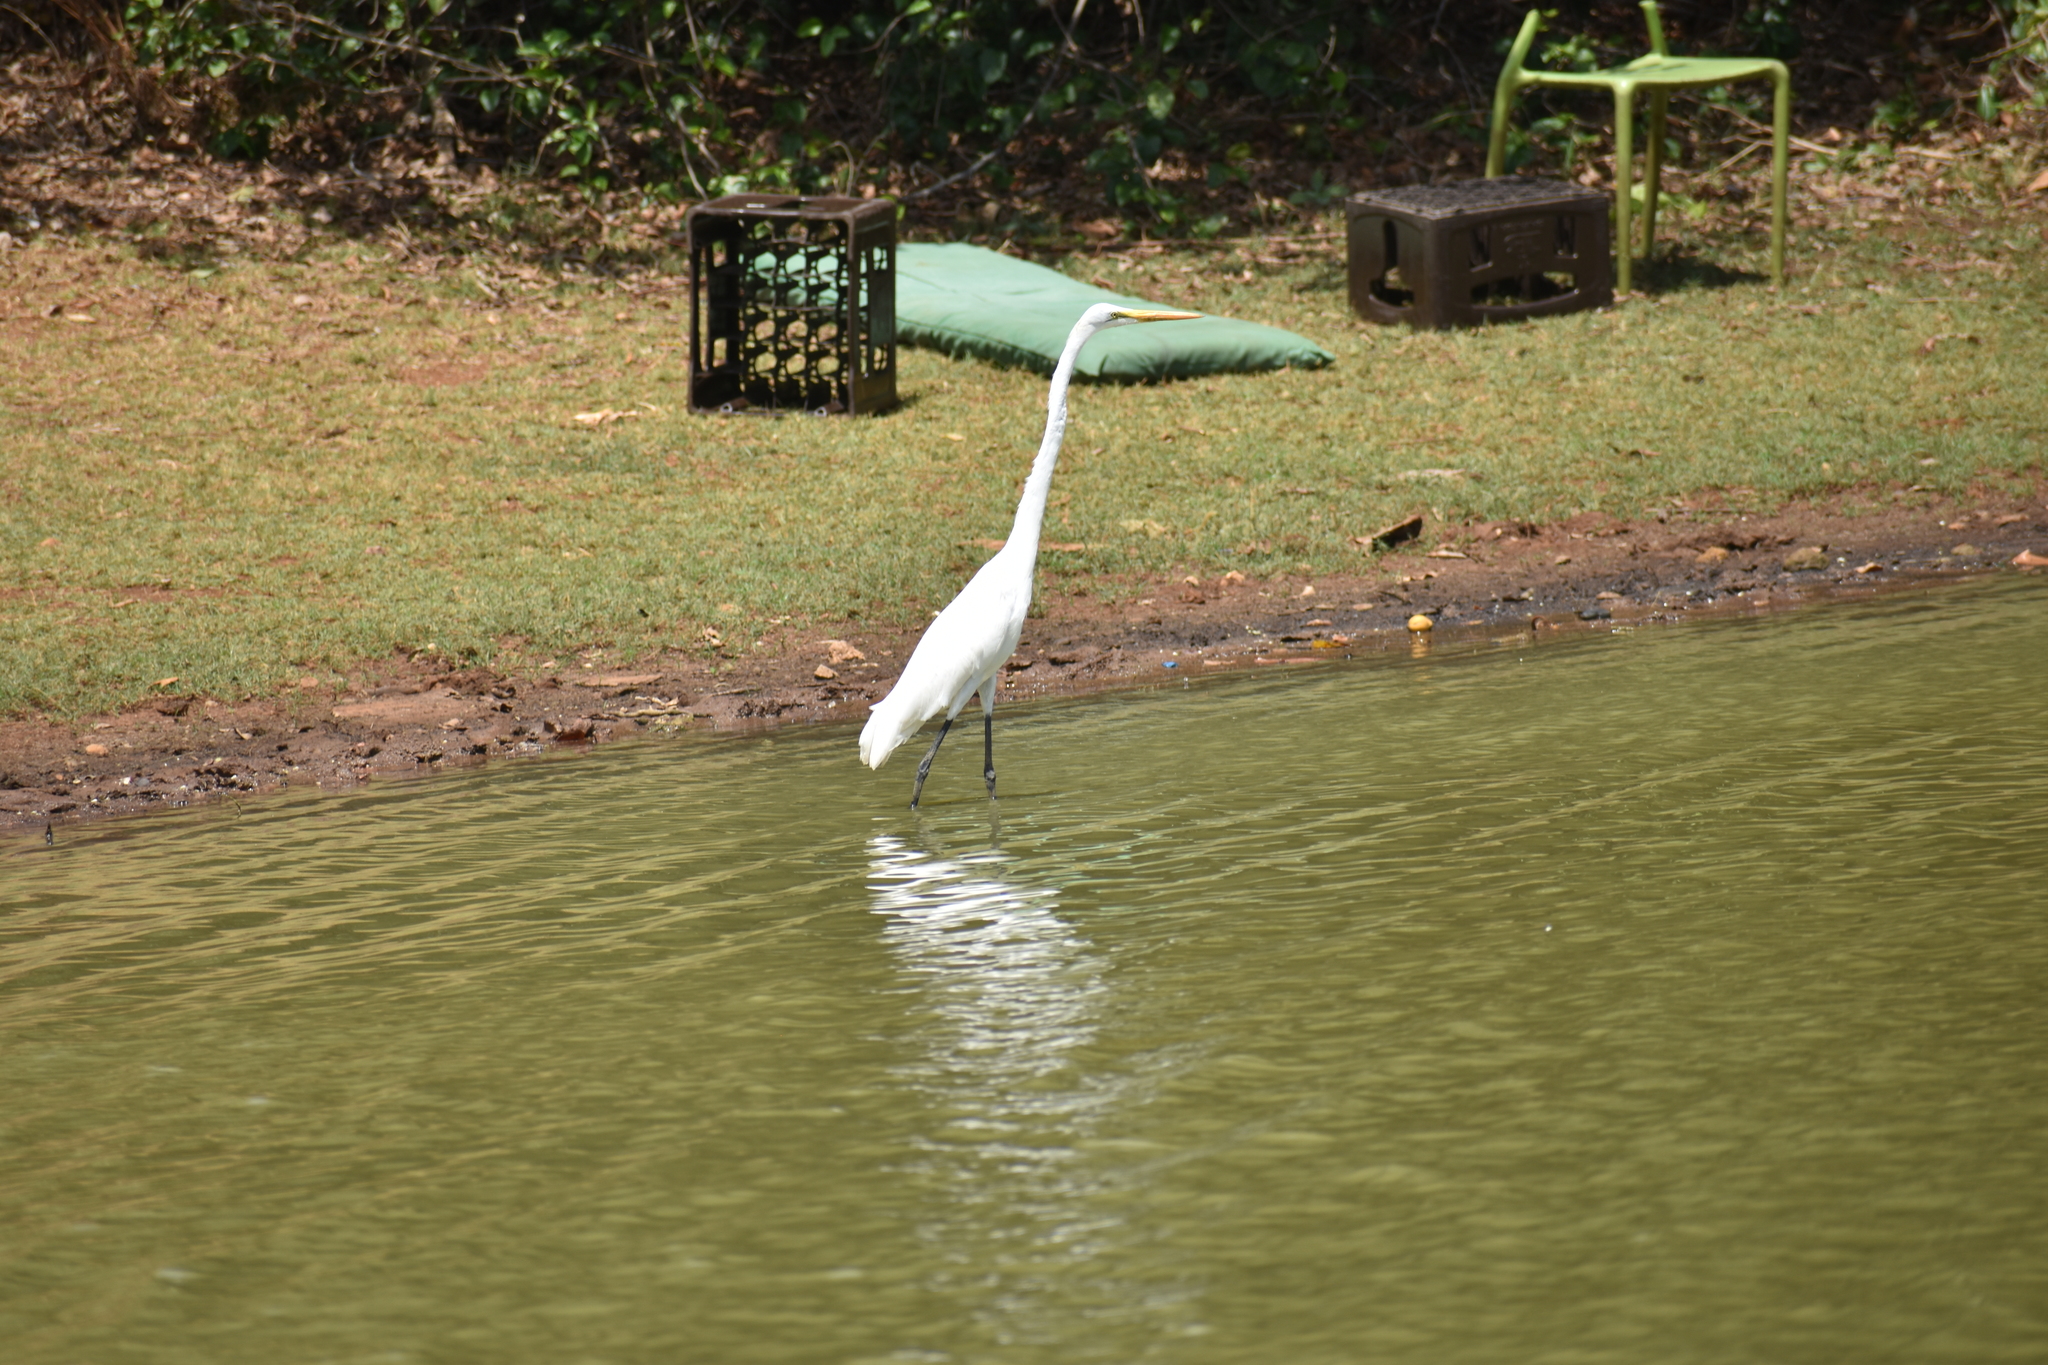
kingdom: Animalia
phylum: Chordata
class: Aves
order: Pelecaniformes
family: Ardeidae
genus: Ardea
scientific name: Ardea alba
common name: Great egret
